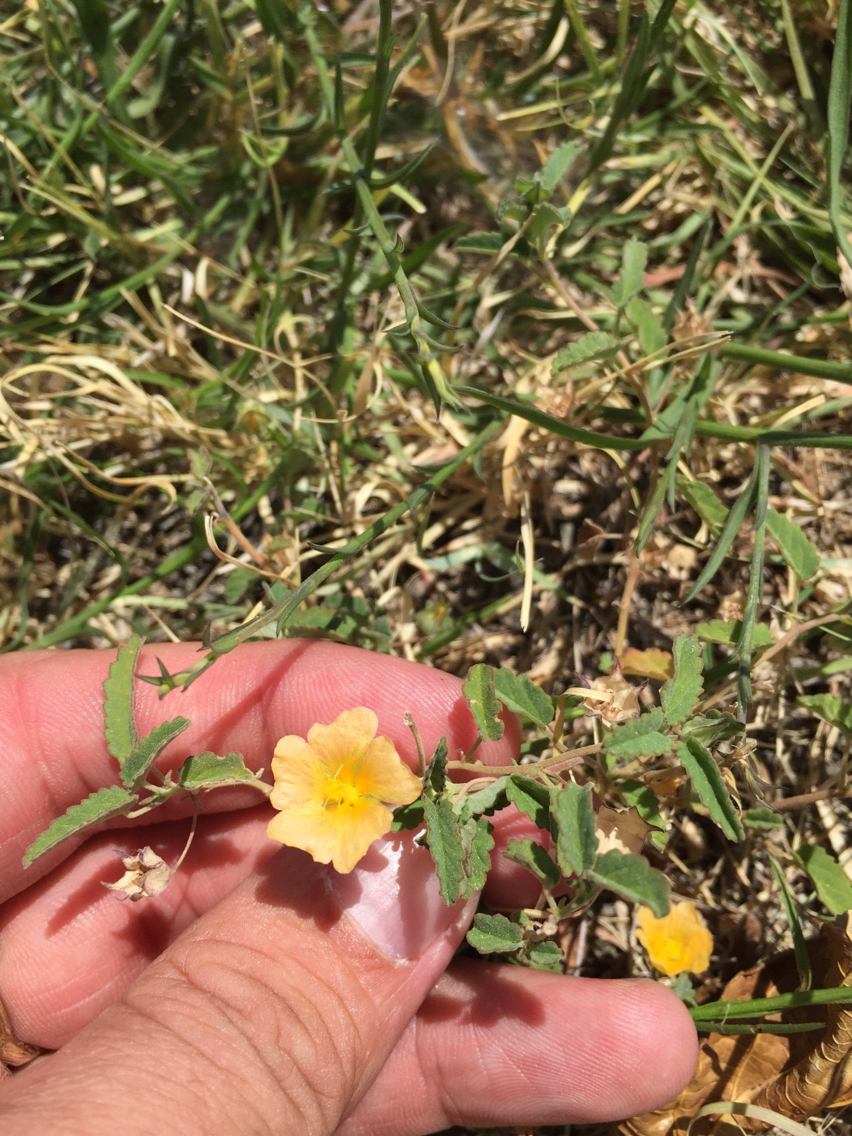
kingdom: Plantae
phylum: Tracheophyta
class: Magnoliopsida
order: Malvales
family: Malvaceae
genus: Sida
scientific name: Sida abutilifolia
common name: Spreading fanpetals
